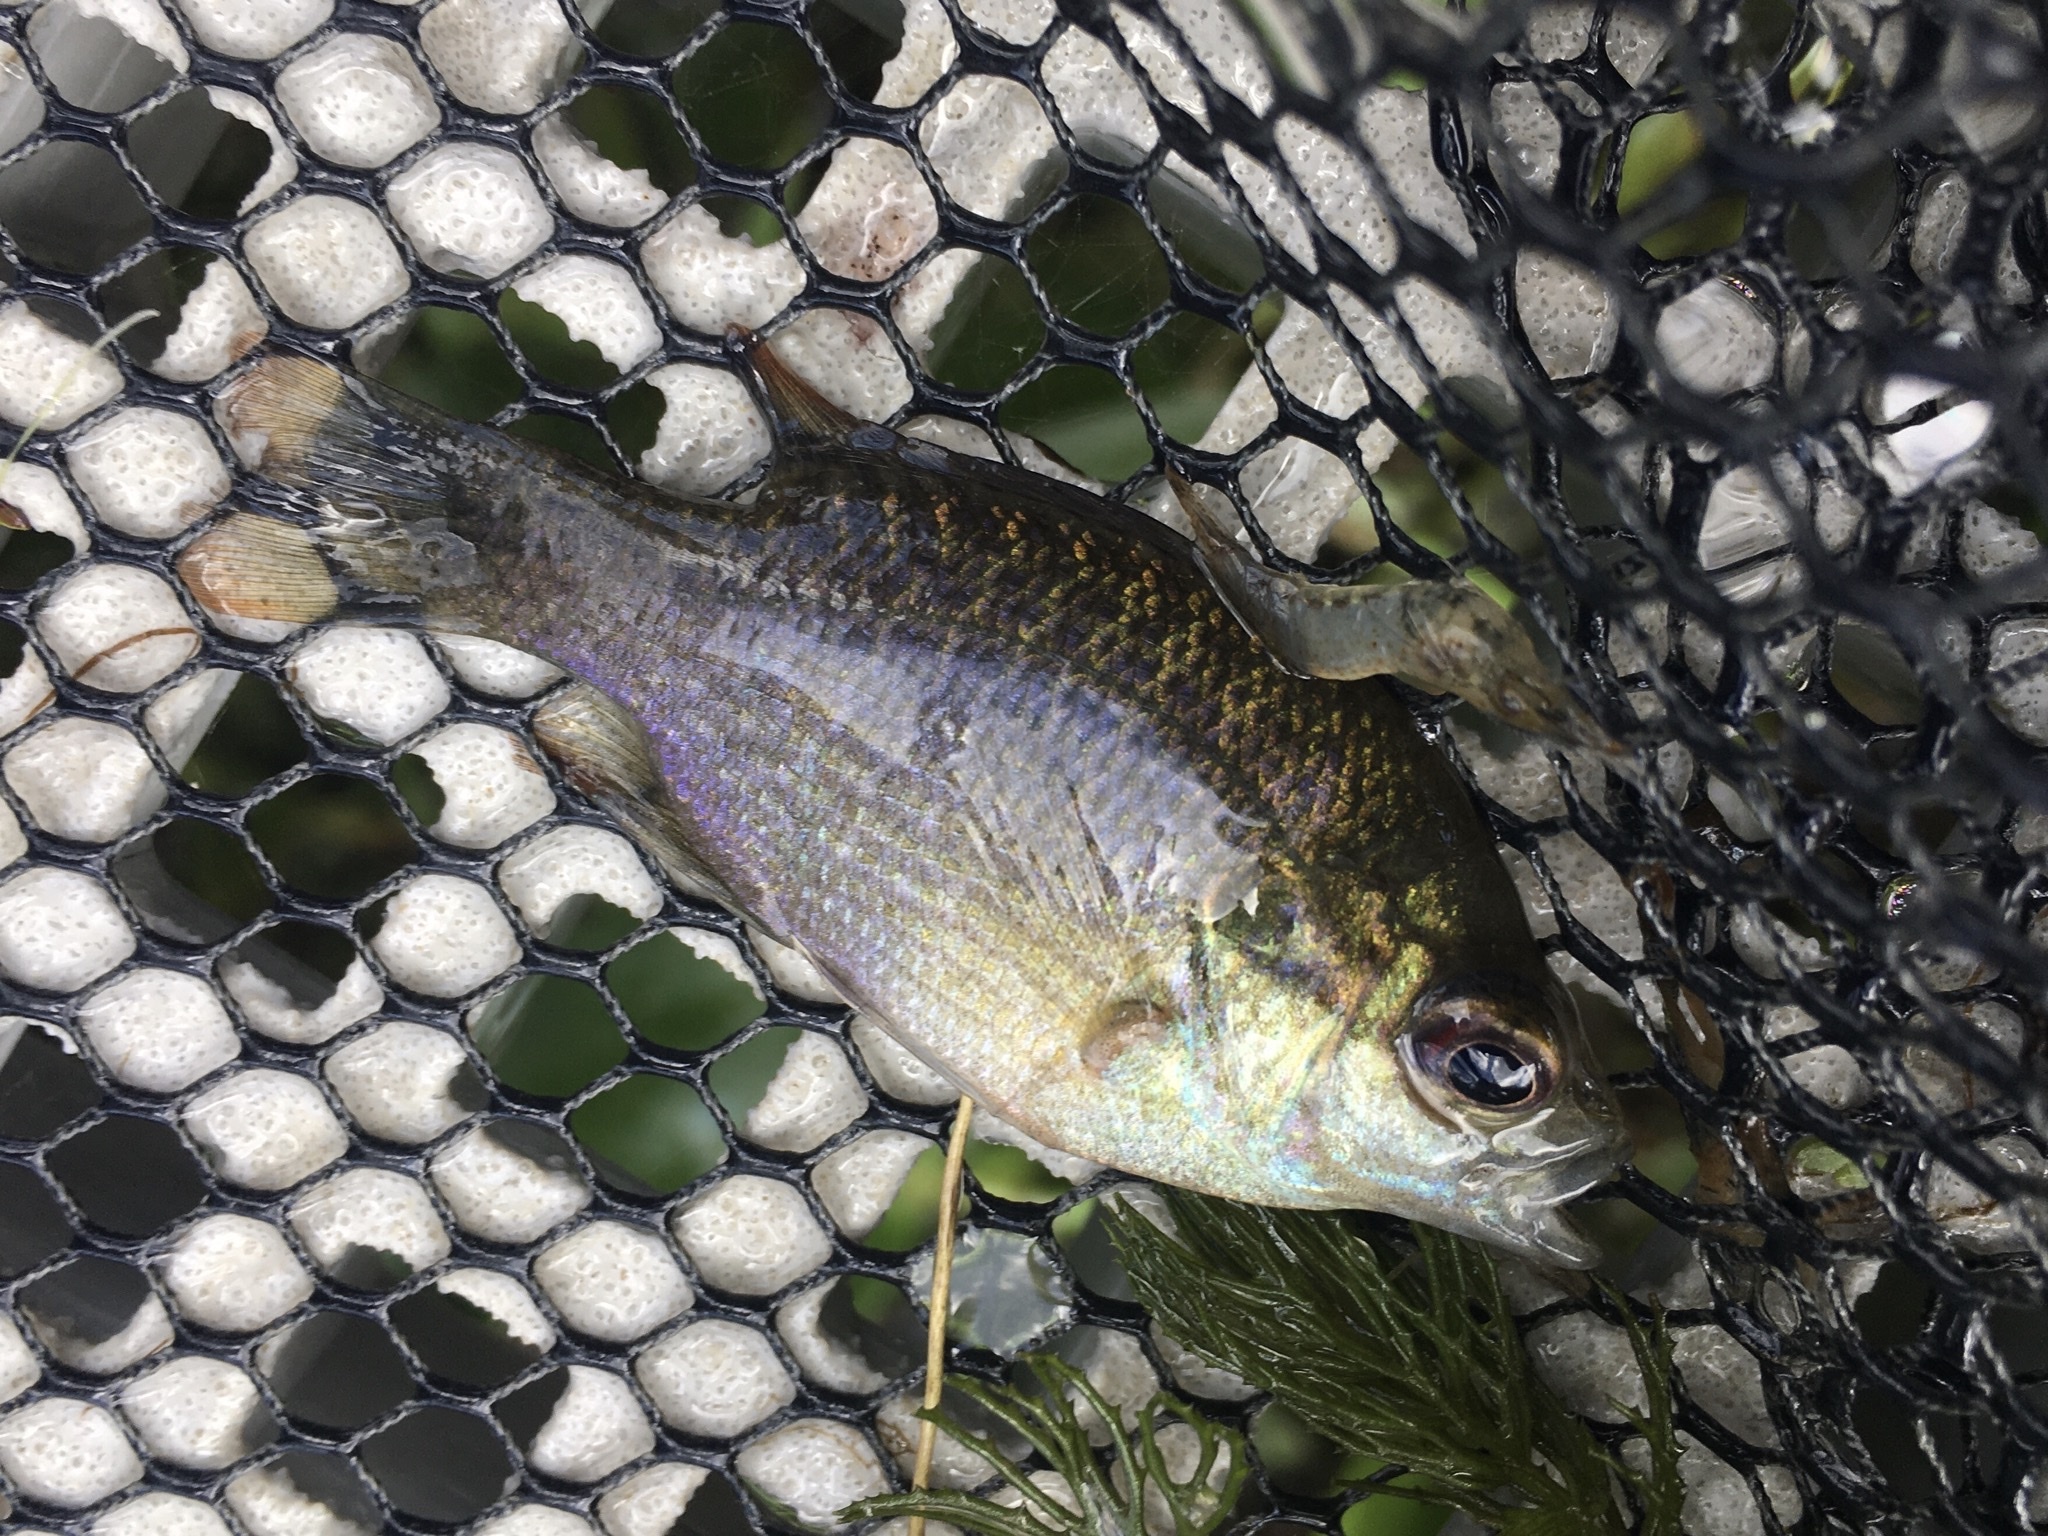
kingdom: Animalia
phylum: Chordata
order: Perciformes
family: Centrarchidae
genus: Lepomis
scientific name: Lepomis symmetricus
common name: Bantam sunfish
